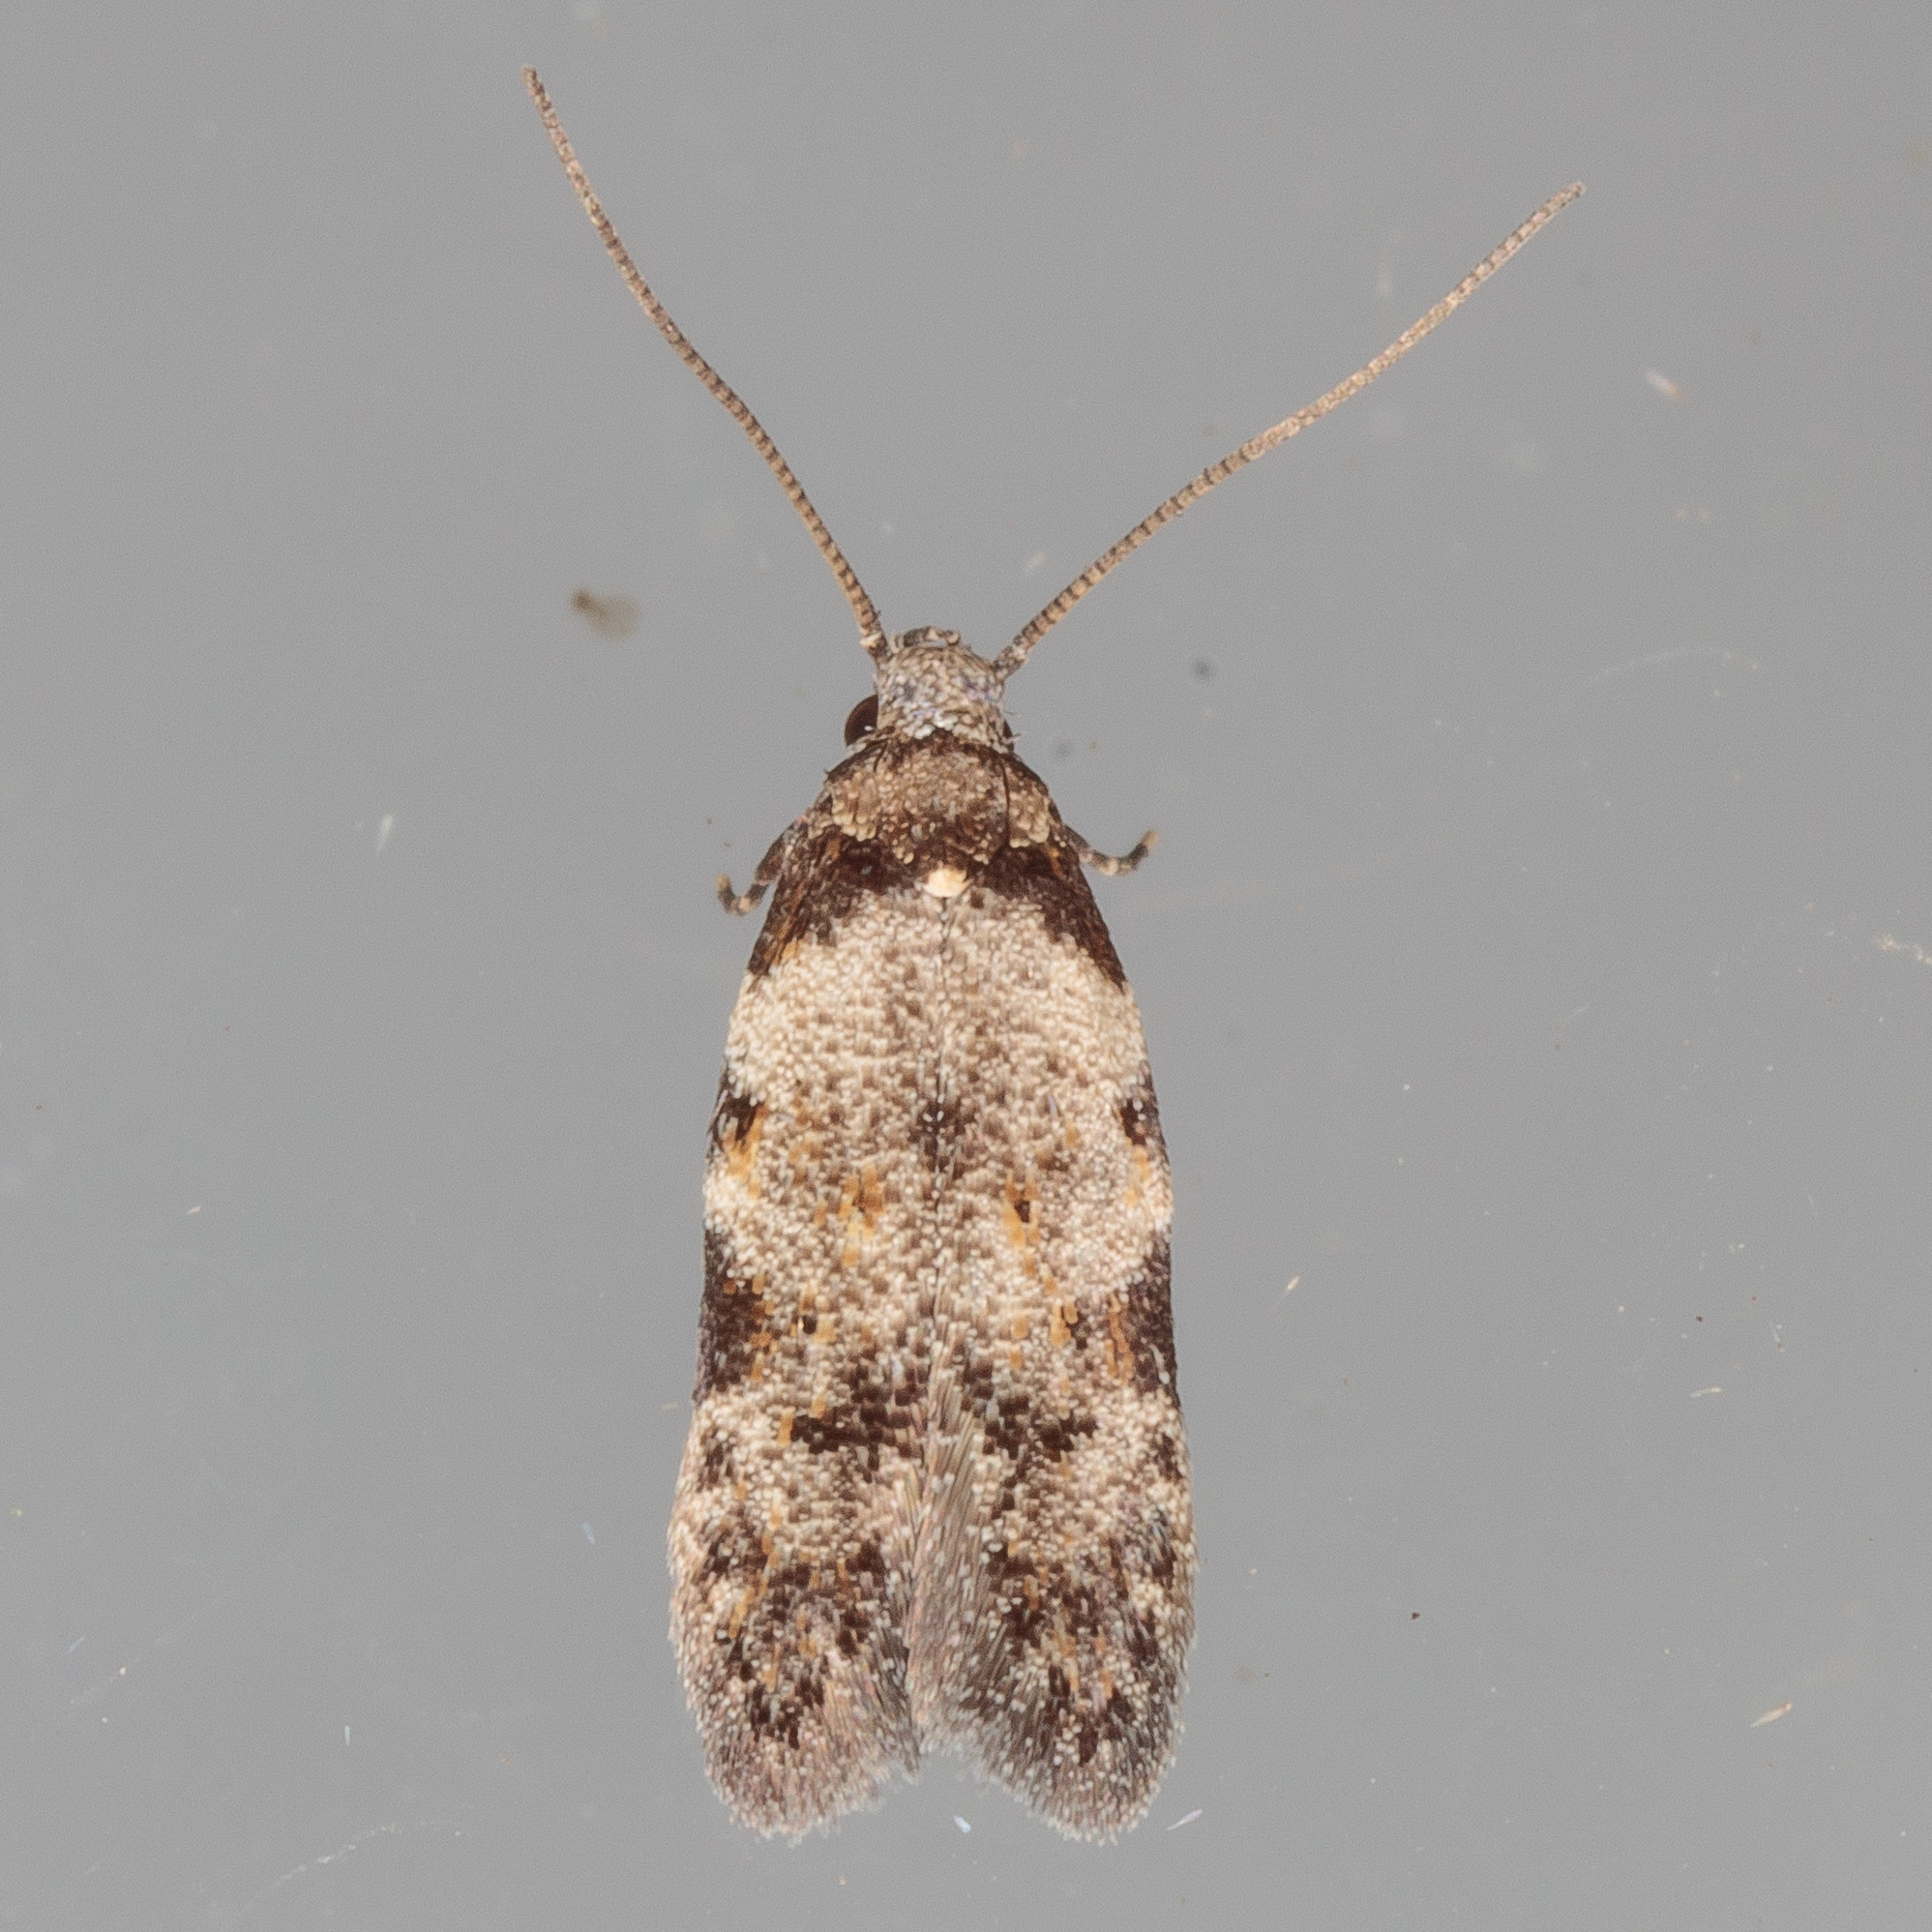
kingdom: Animalia
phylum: Arthropoda
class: Insecta
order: Lepidoptera
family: Autostichidae
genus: Taygete
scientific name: Taygete attributella
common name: Triangle-marked twirler moth
